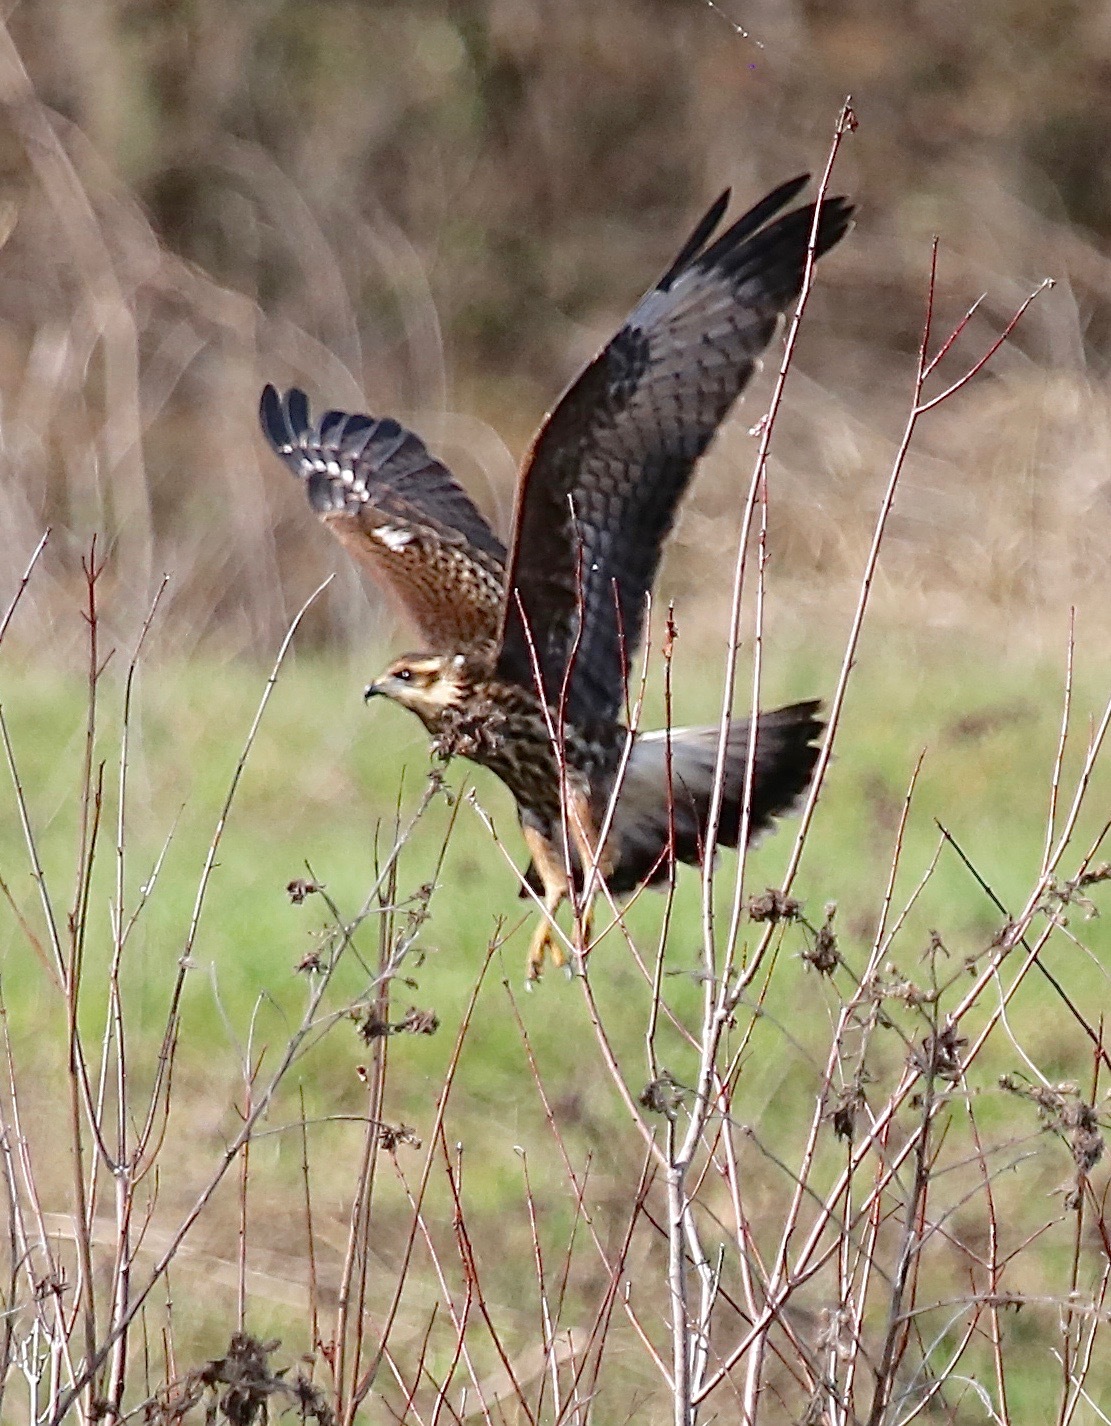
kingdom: Animalia
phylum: Chordata
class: Aves
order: Accipitriformes
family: Accipitridae
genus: Rostrhamus
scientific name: Rostrhamus sociabilis
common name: Snail kite
